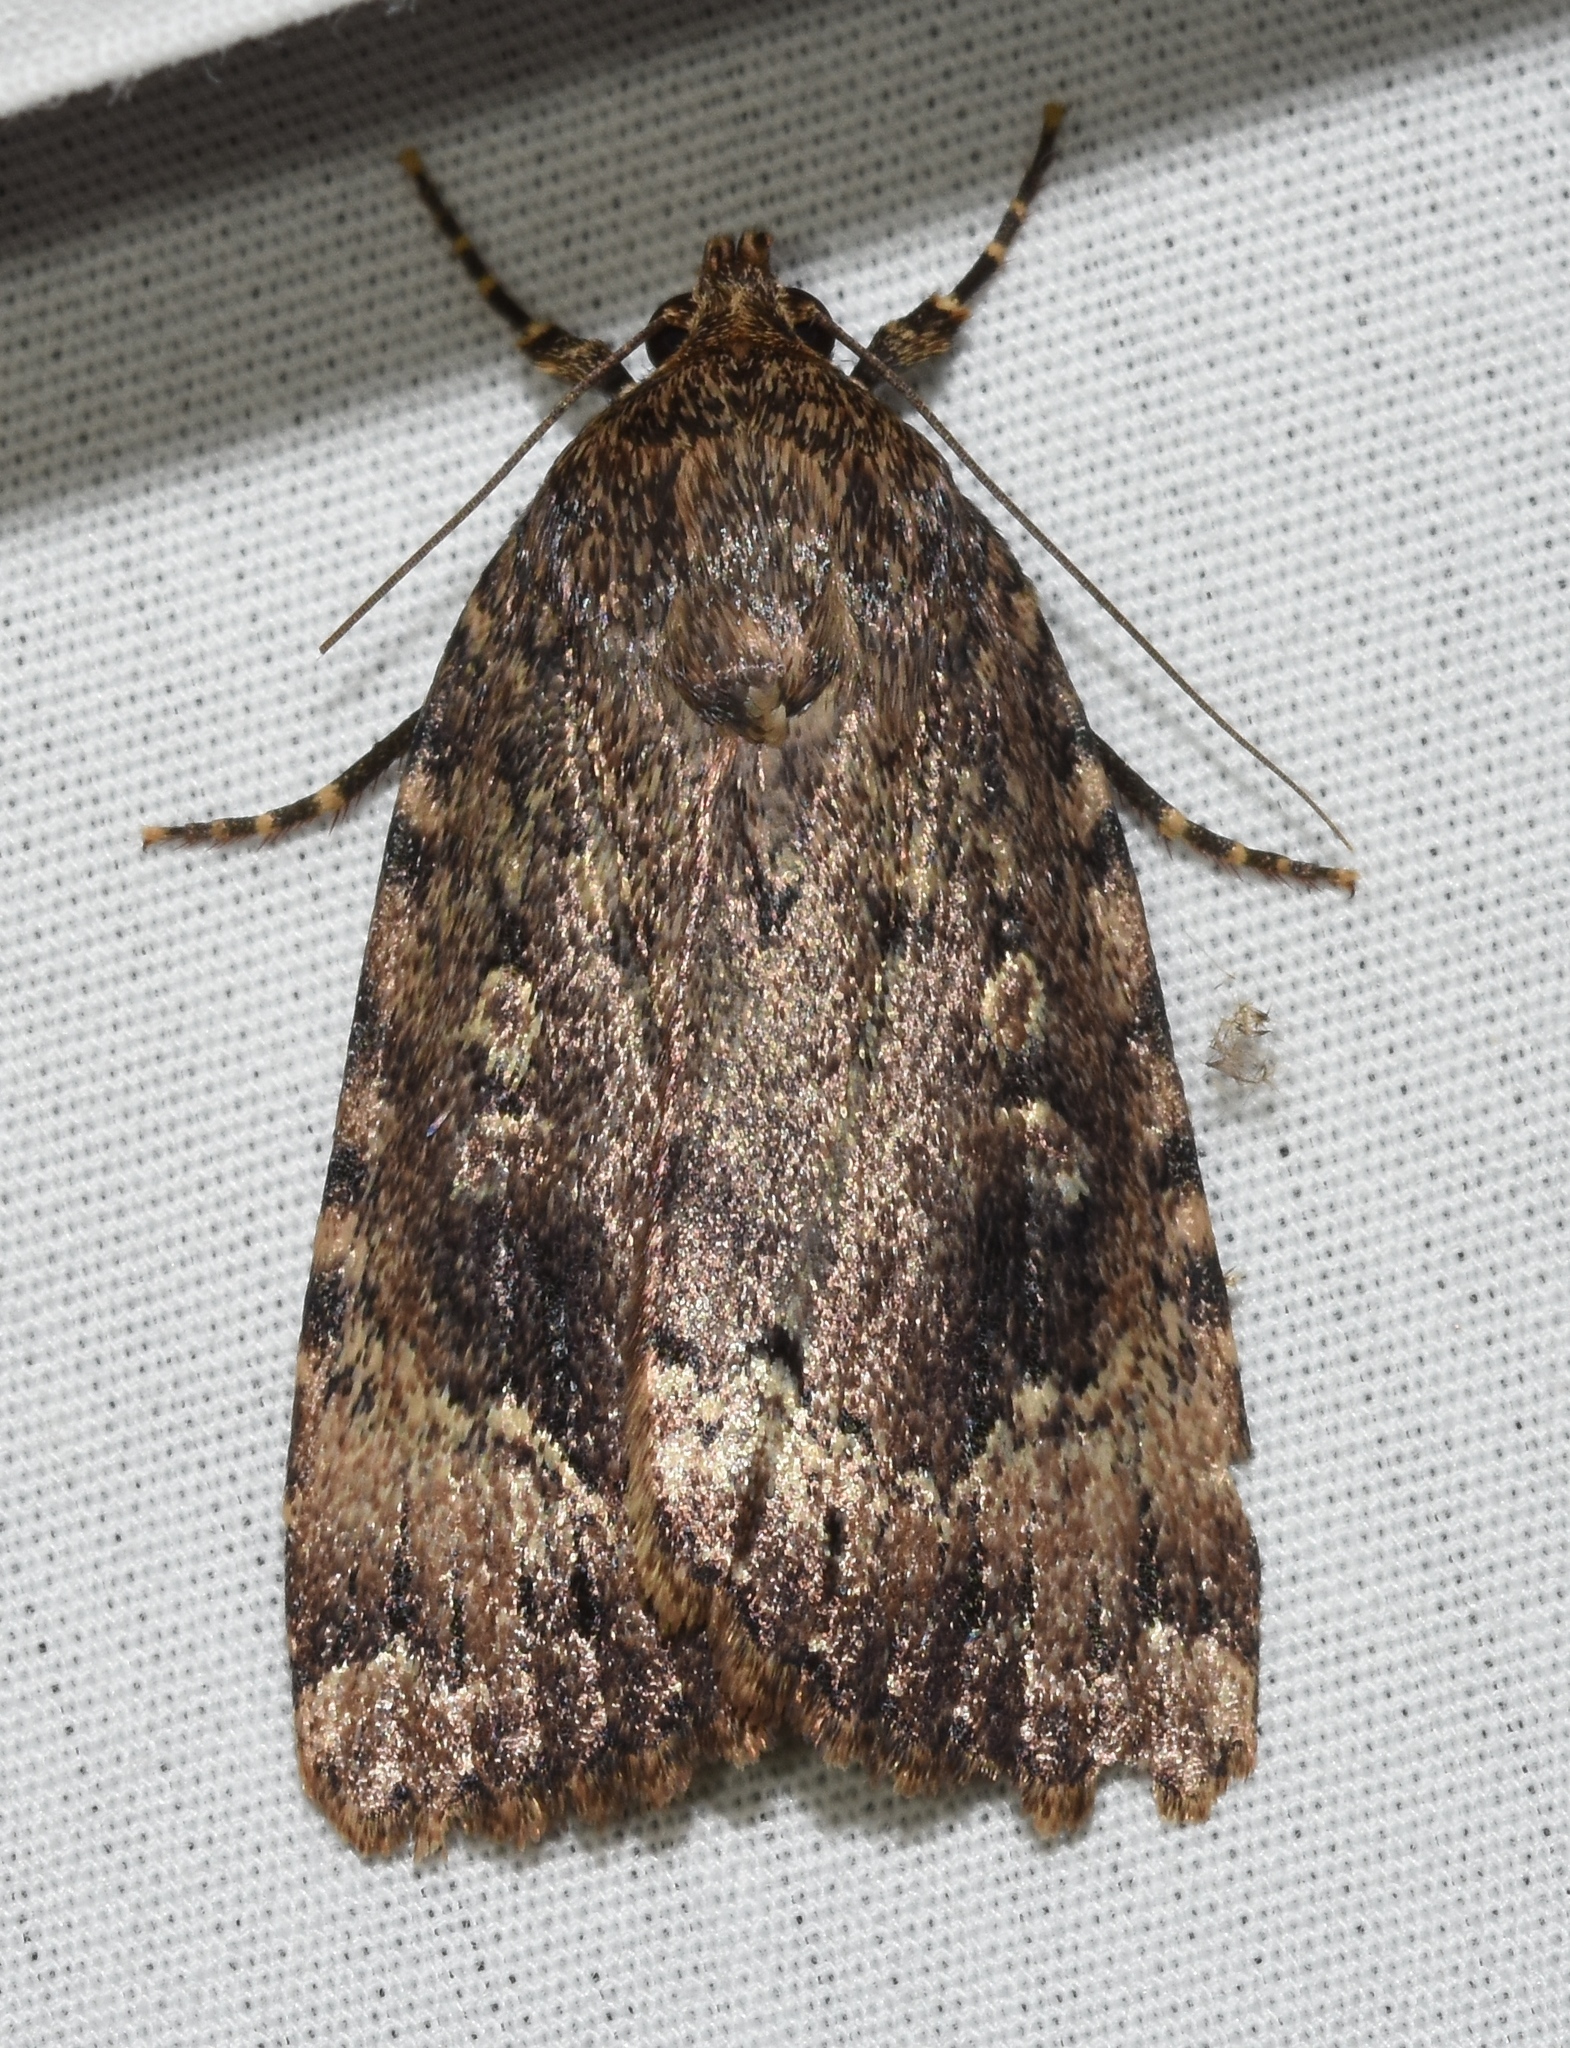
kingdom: Animalia
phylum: Arthropoda
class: Insecta
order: Lepidoptera
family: Noctuidae
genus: Amphipyra
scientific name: Amphipyra pyramidoides
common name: American copper underwing
